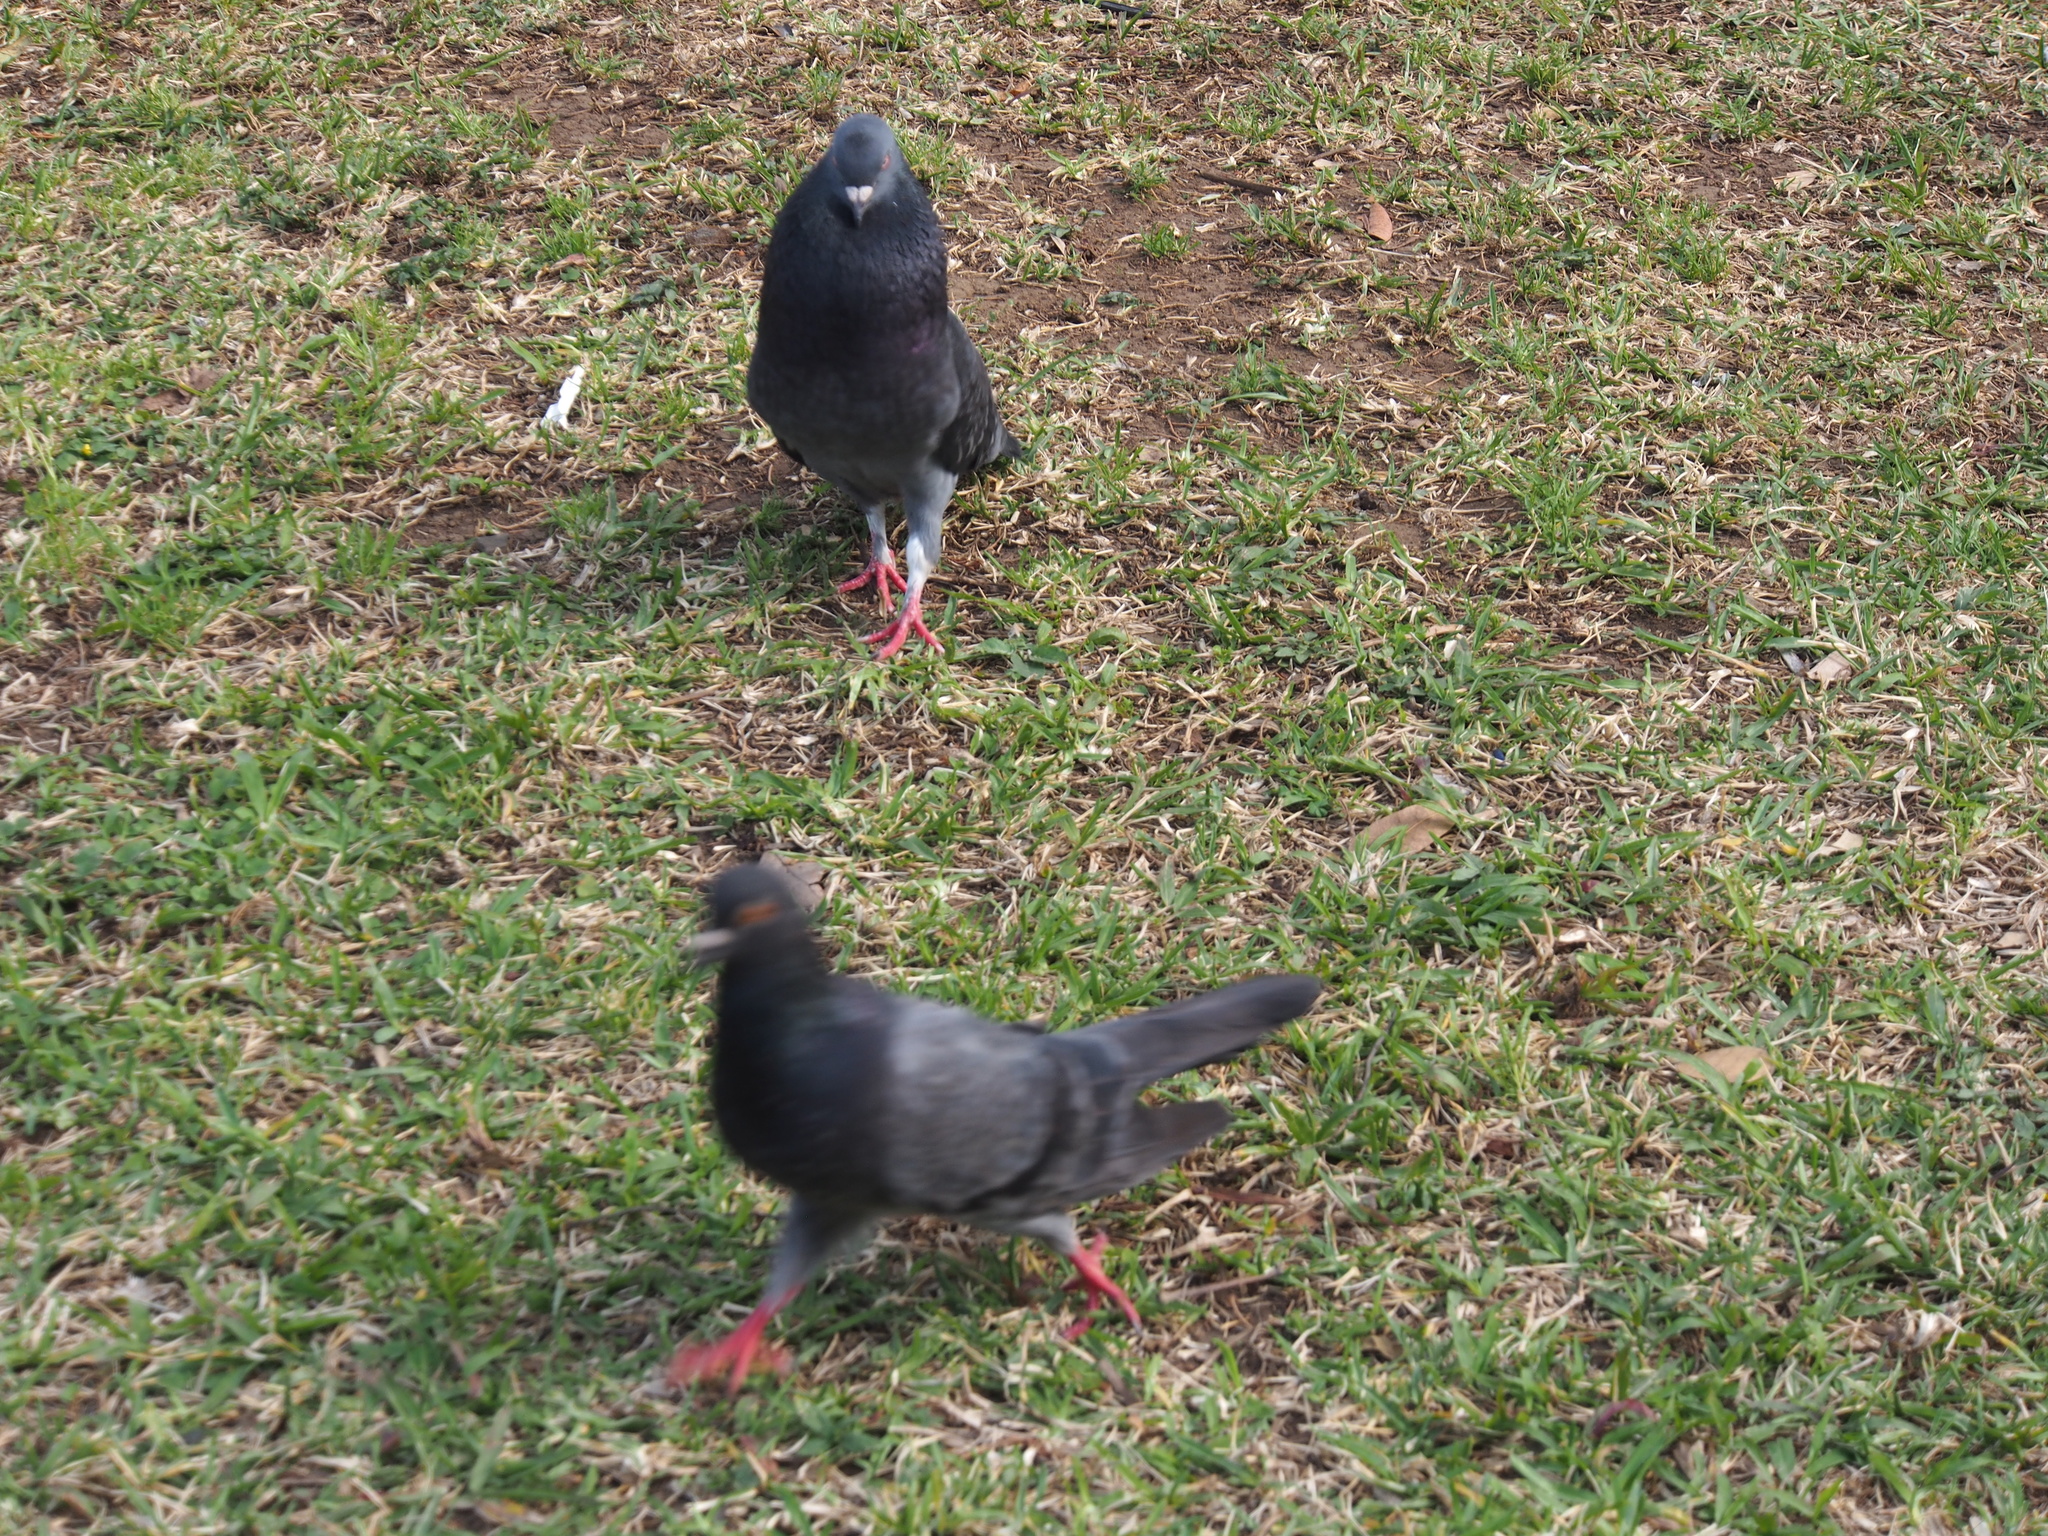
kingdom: Animalia
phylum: Chordata
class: Aves
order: Columbiformes
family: Columbidae
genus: Columba
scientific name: Columba livia
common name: Rock pigeon
